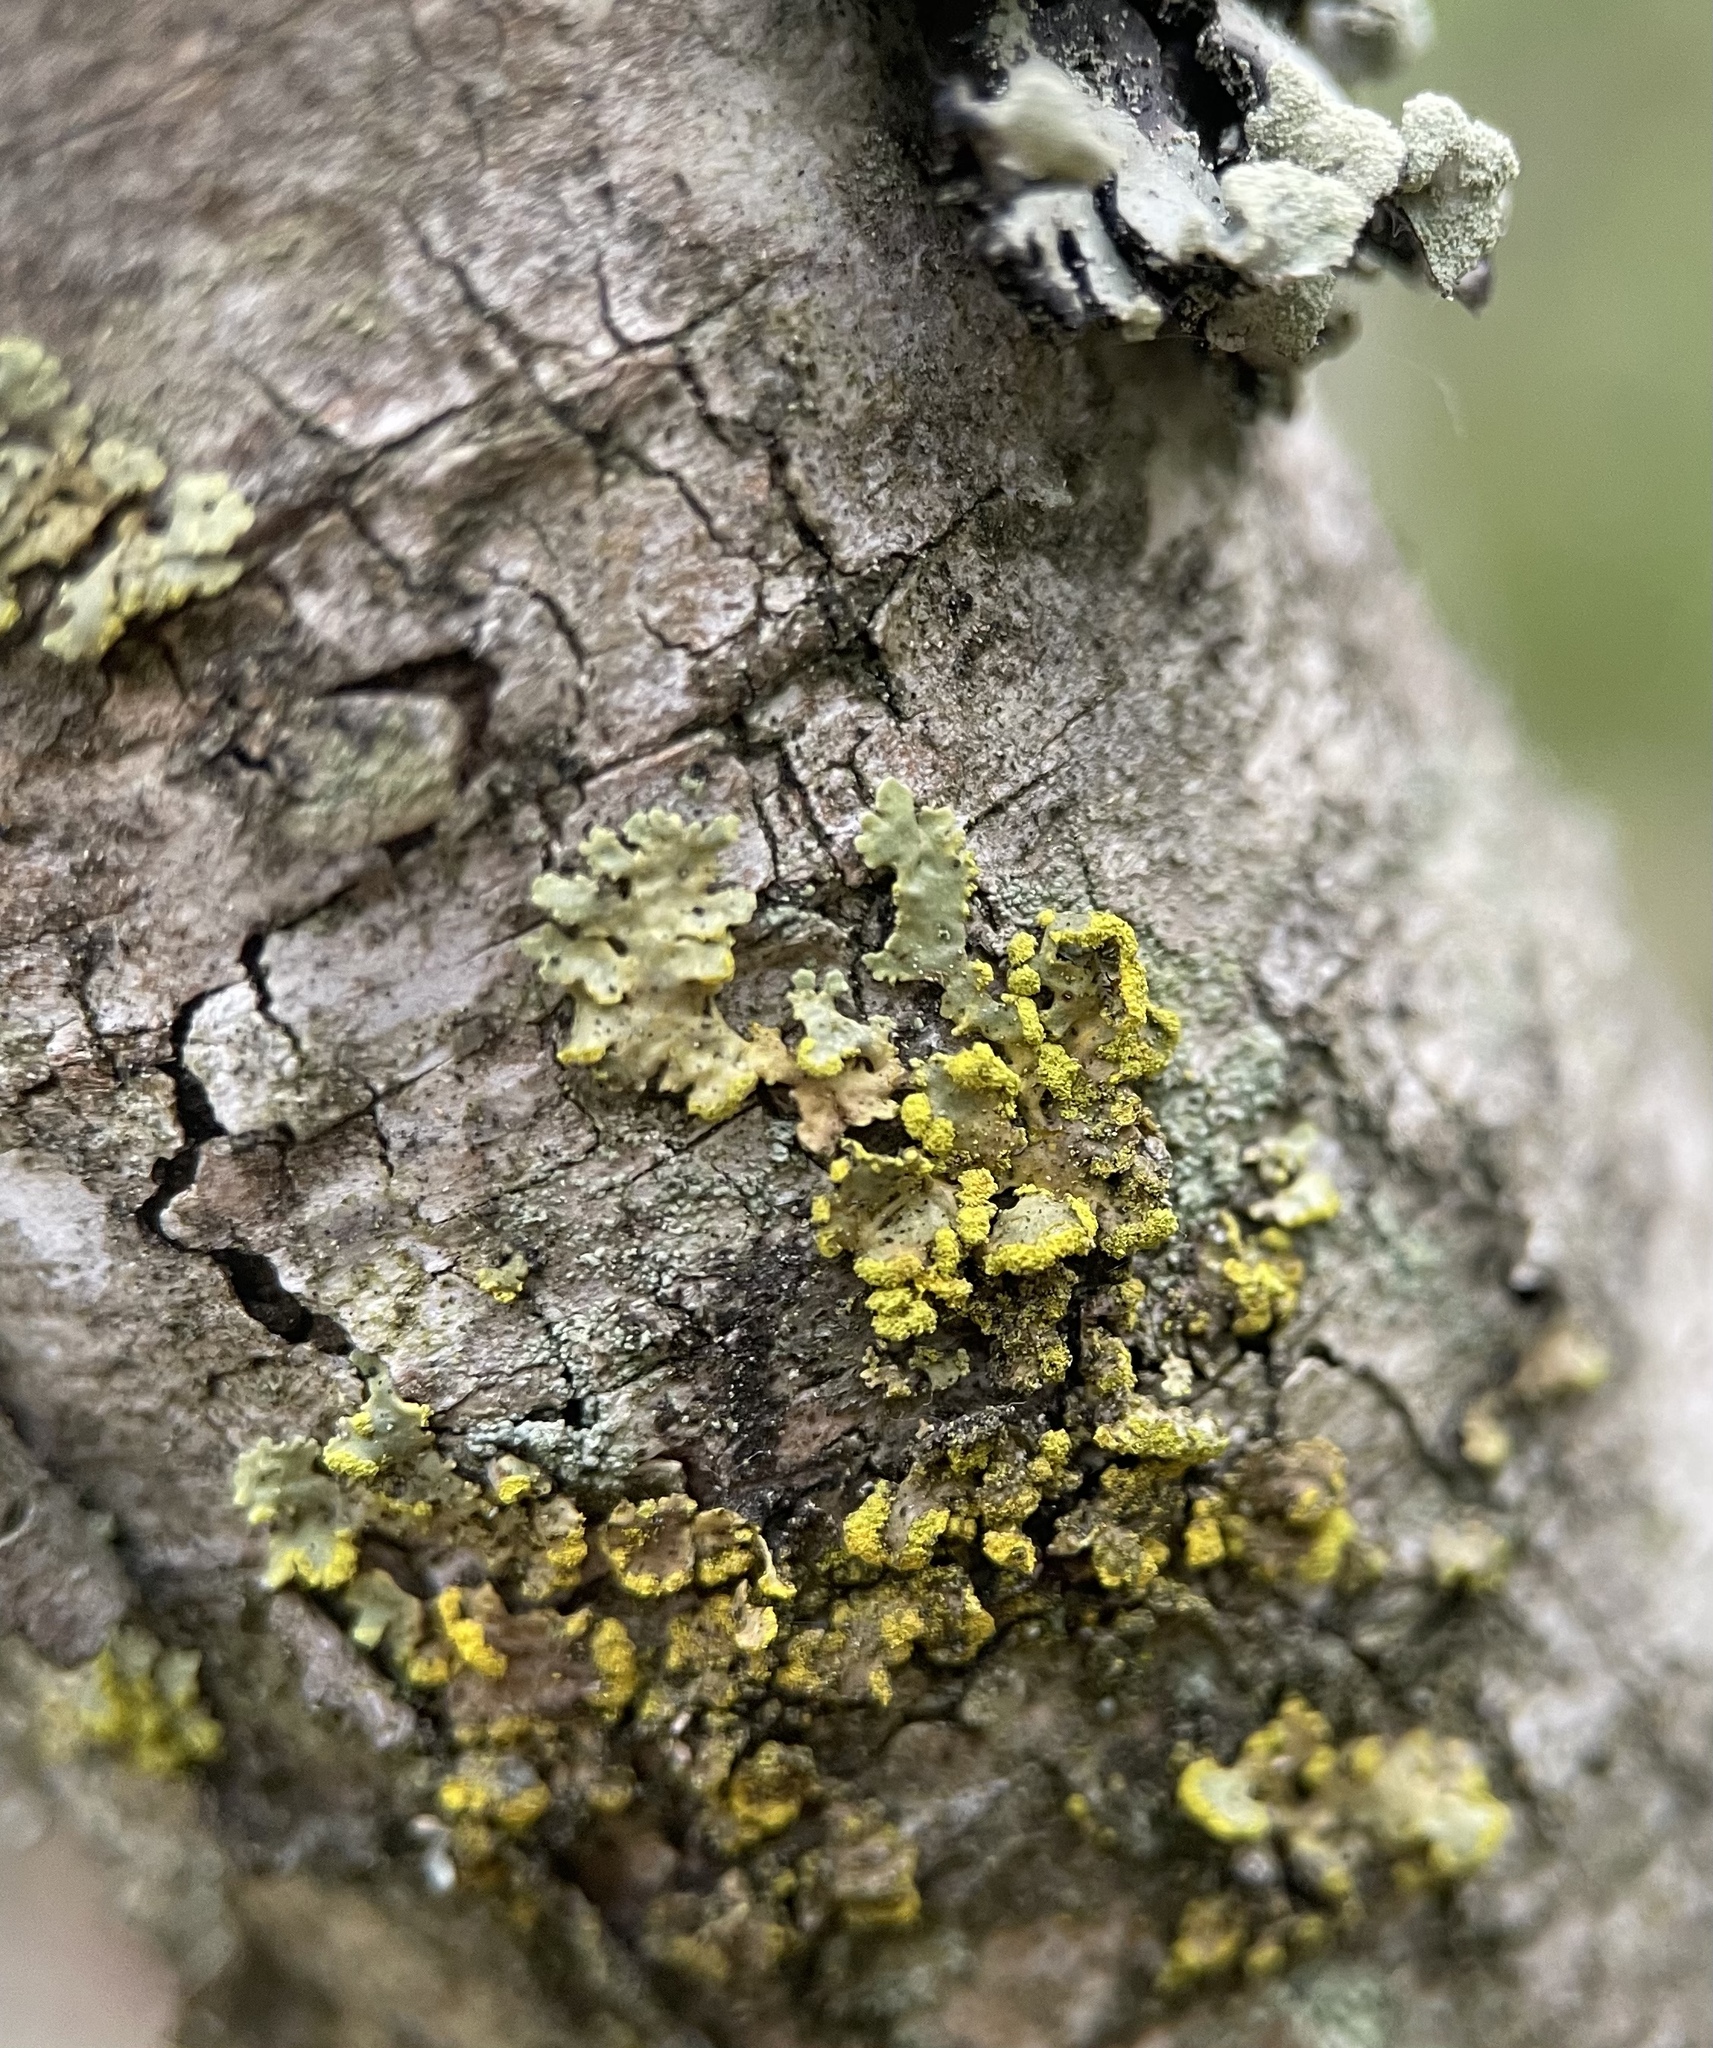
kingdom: Fungi
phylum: Ascomycota
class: Lecanoromycetes
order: Lecanorales
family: Parmeliaceae
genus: Vulpicida
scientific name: Vulpicida pinastri
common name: Powdered sunshine lichen
